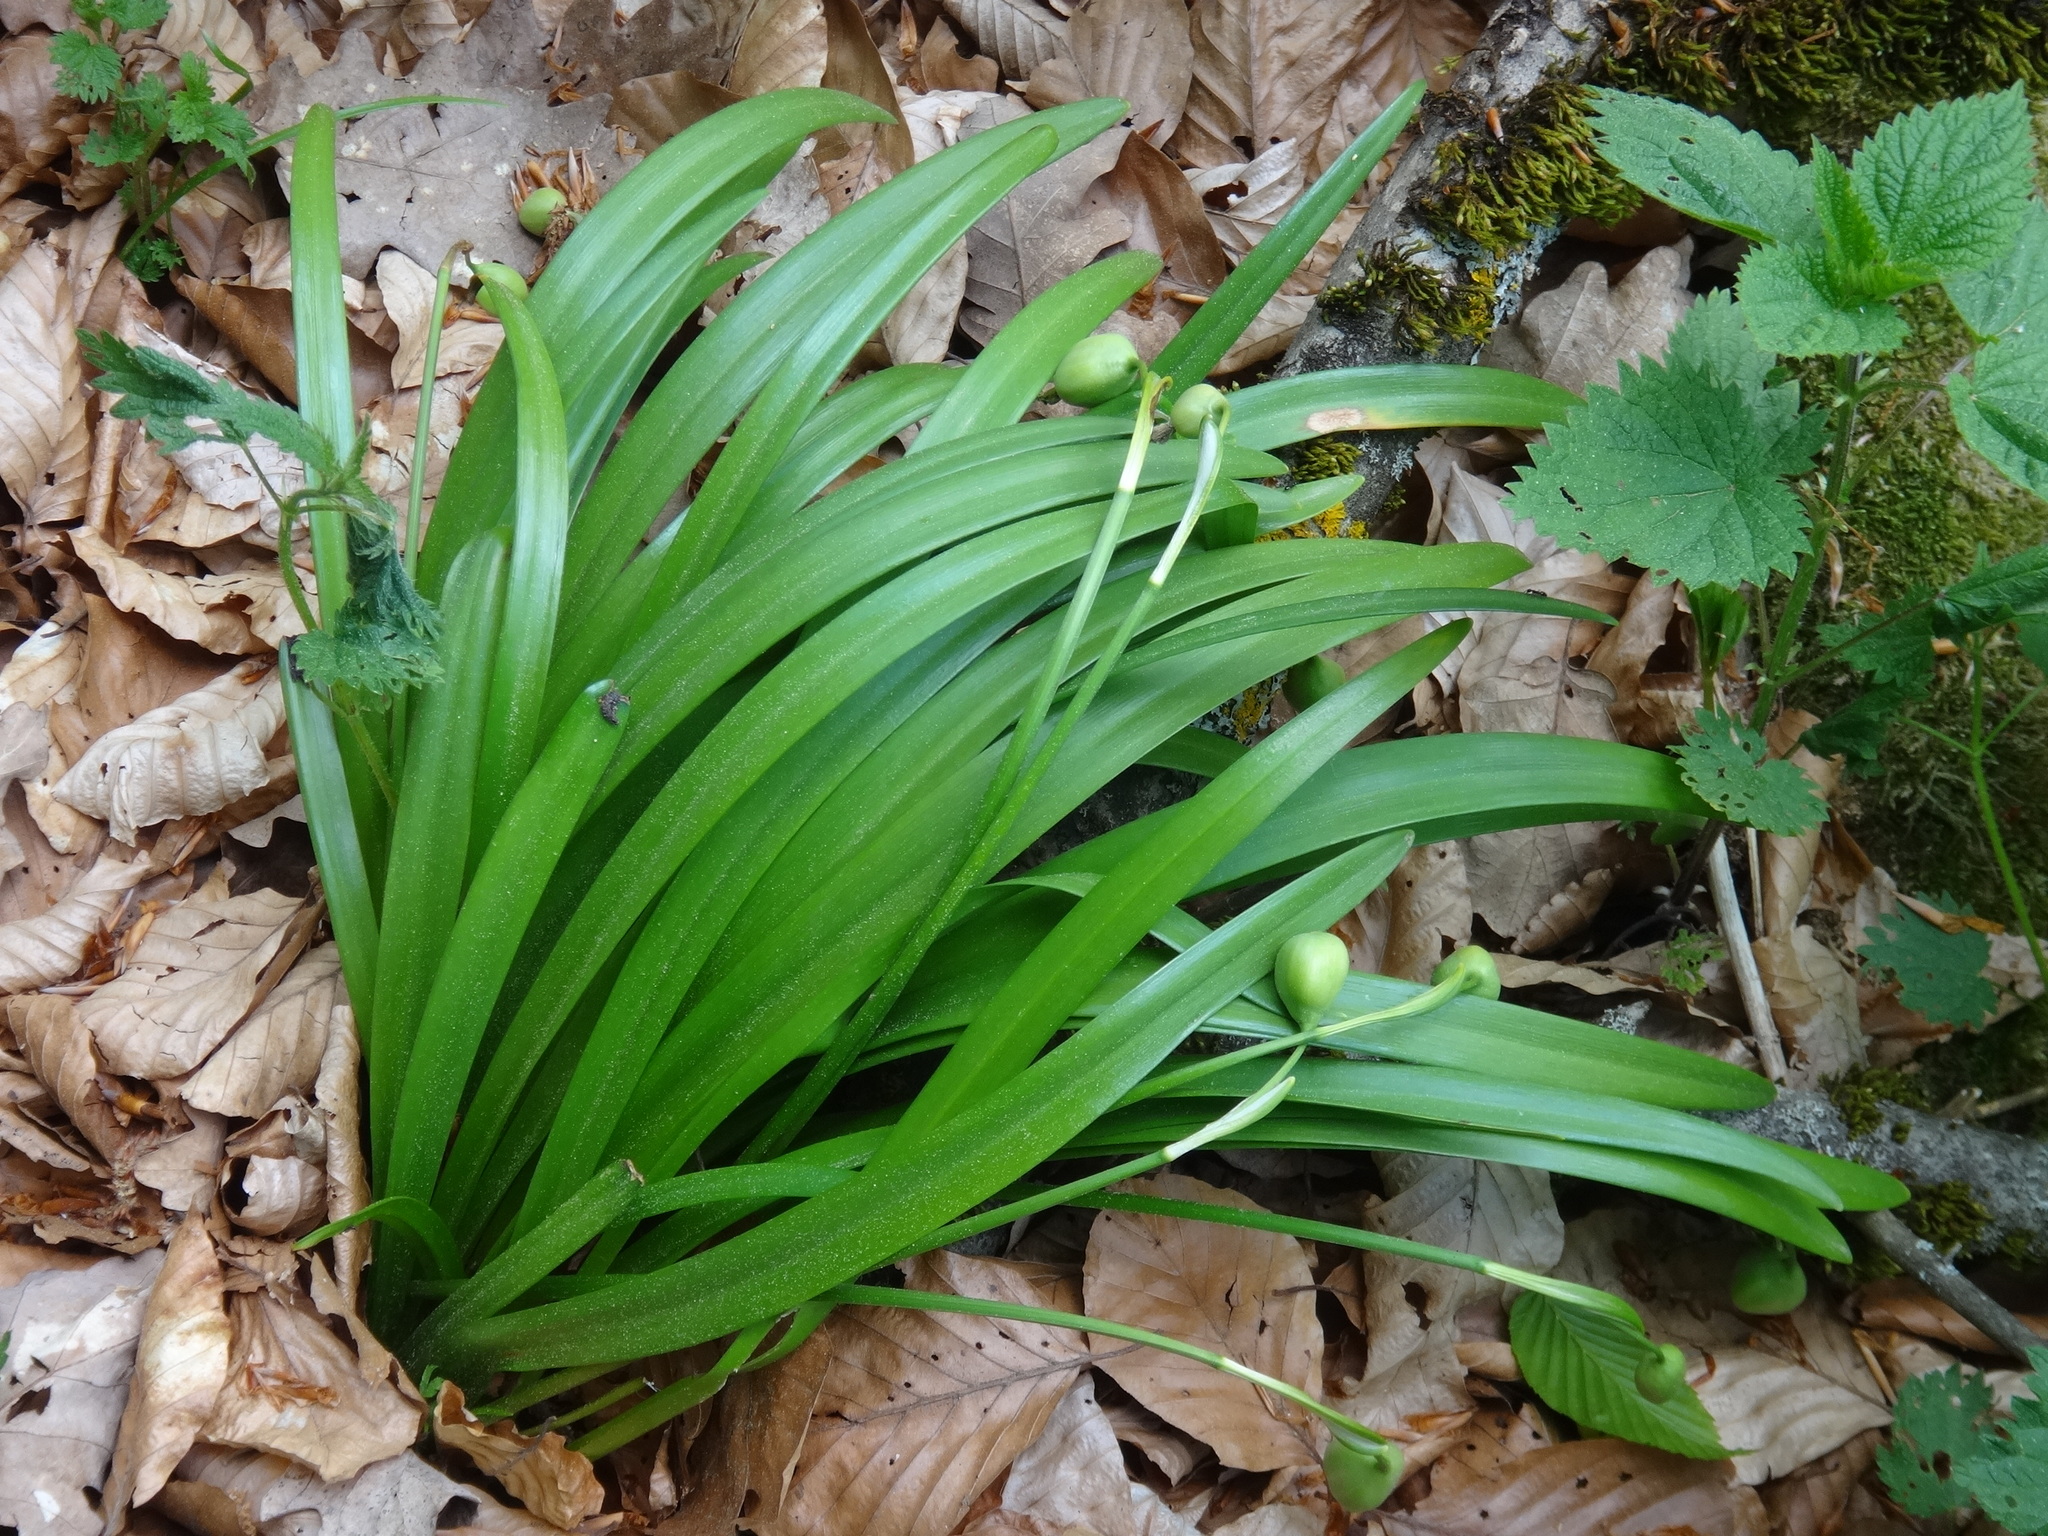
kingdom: Plantae
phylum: Tracheophyta
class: Liliopsida
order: Asparagales
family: Amaryllidaceae
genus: Leucojum
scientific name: Leucojum vernum
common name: Spring snowflake
